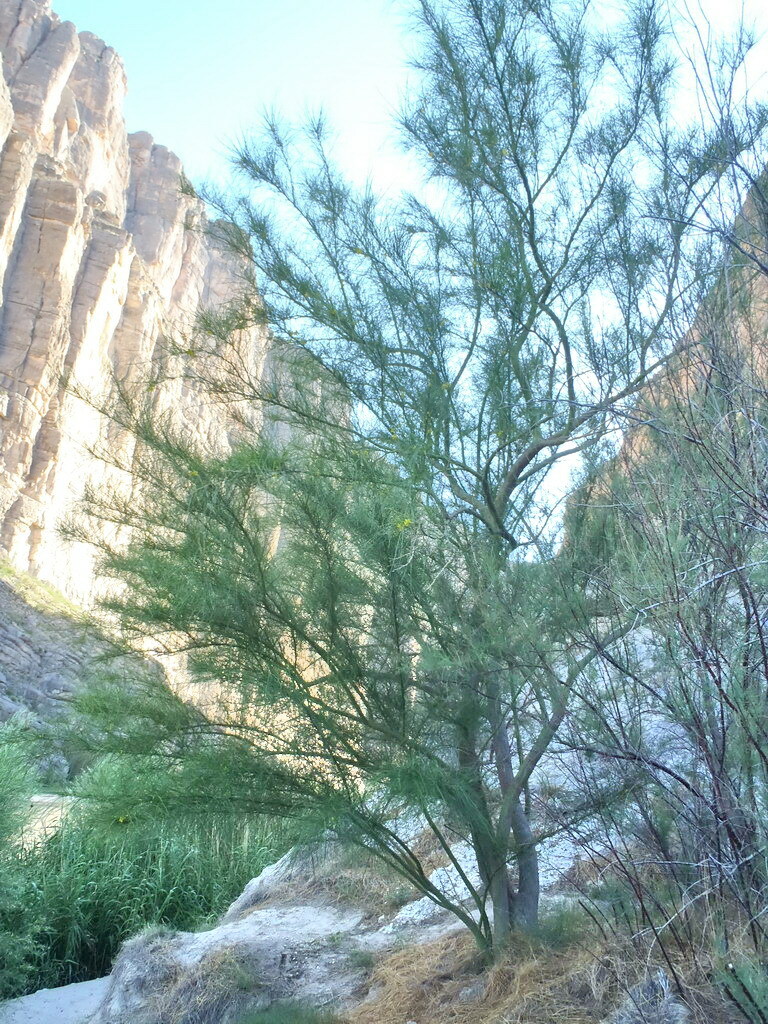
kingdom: Plantae
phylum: Tracheophyta
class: Magnoliopsida
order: Fabales
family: Fabaceae
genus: Parkinsonia
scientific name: Parkinsonia aculeata
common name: Jerusalem thorn
